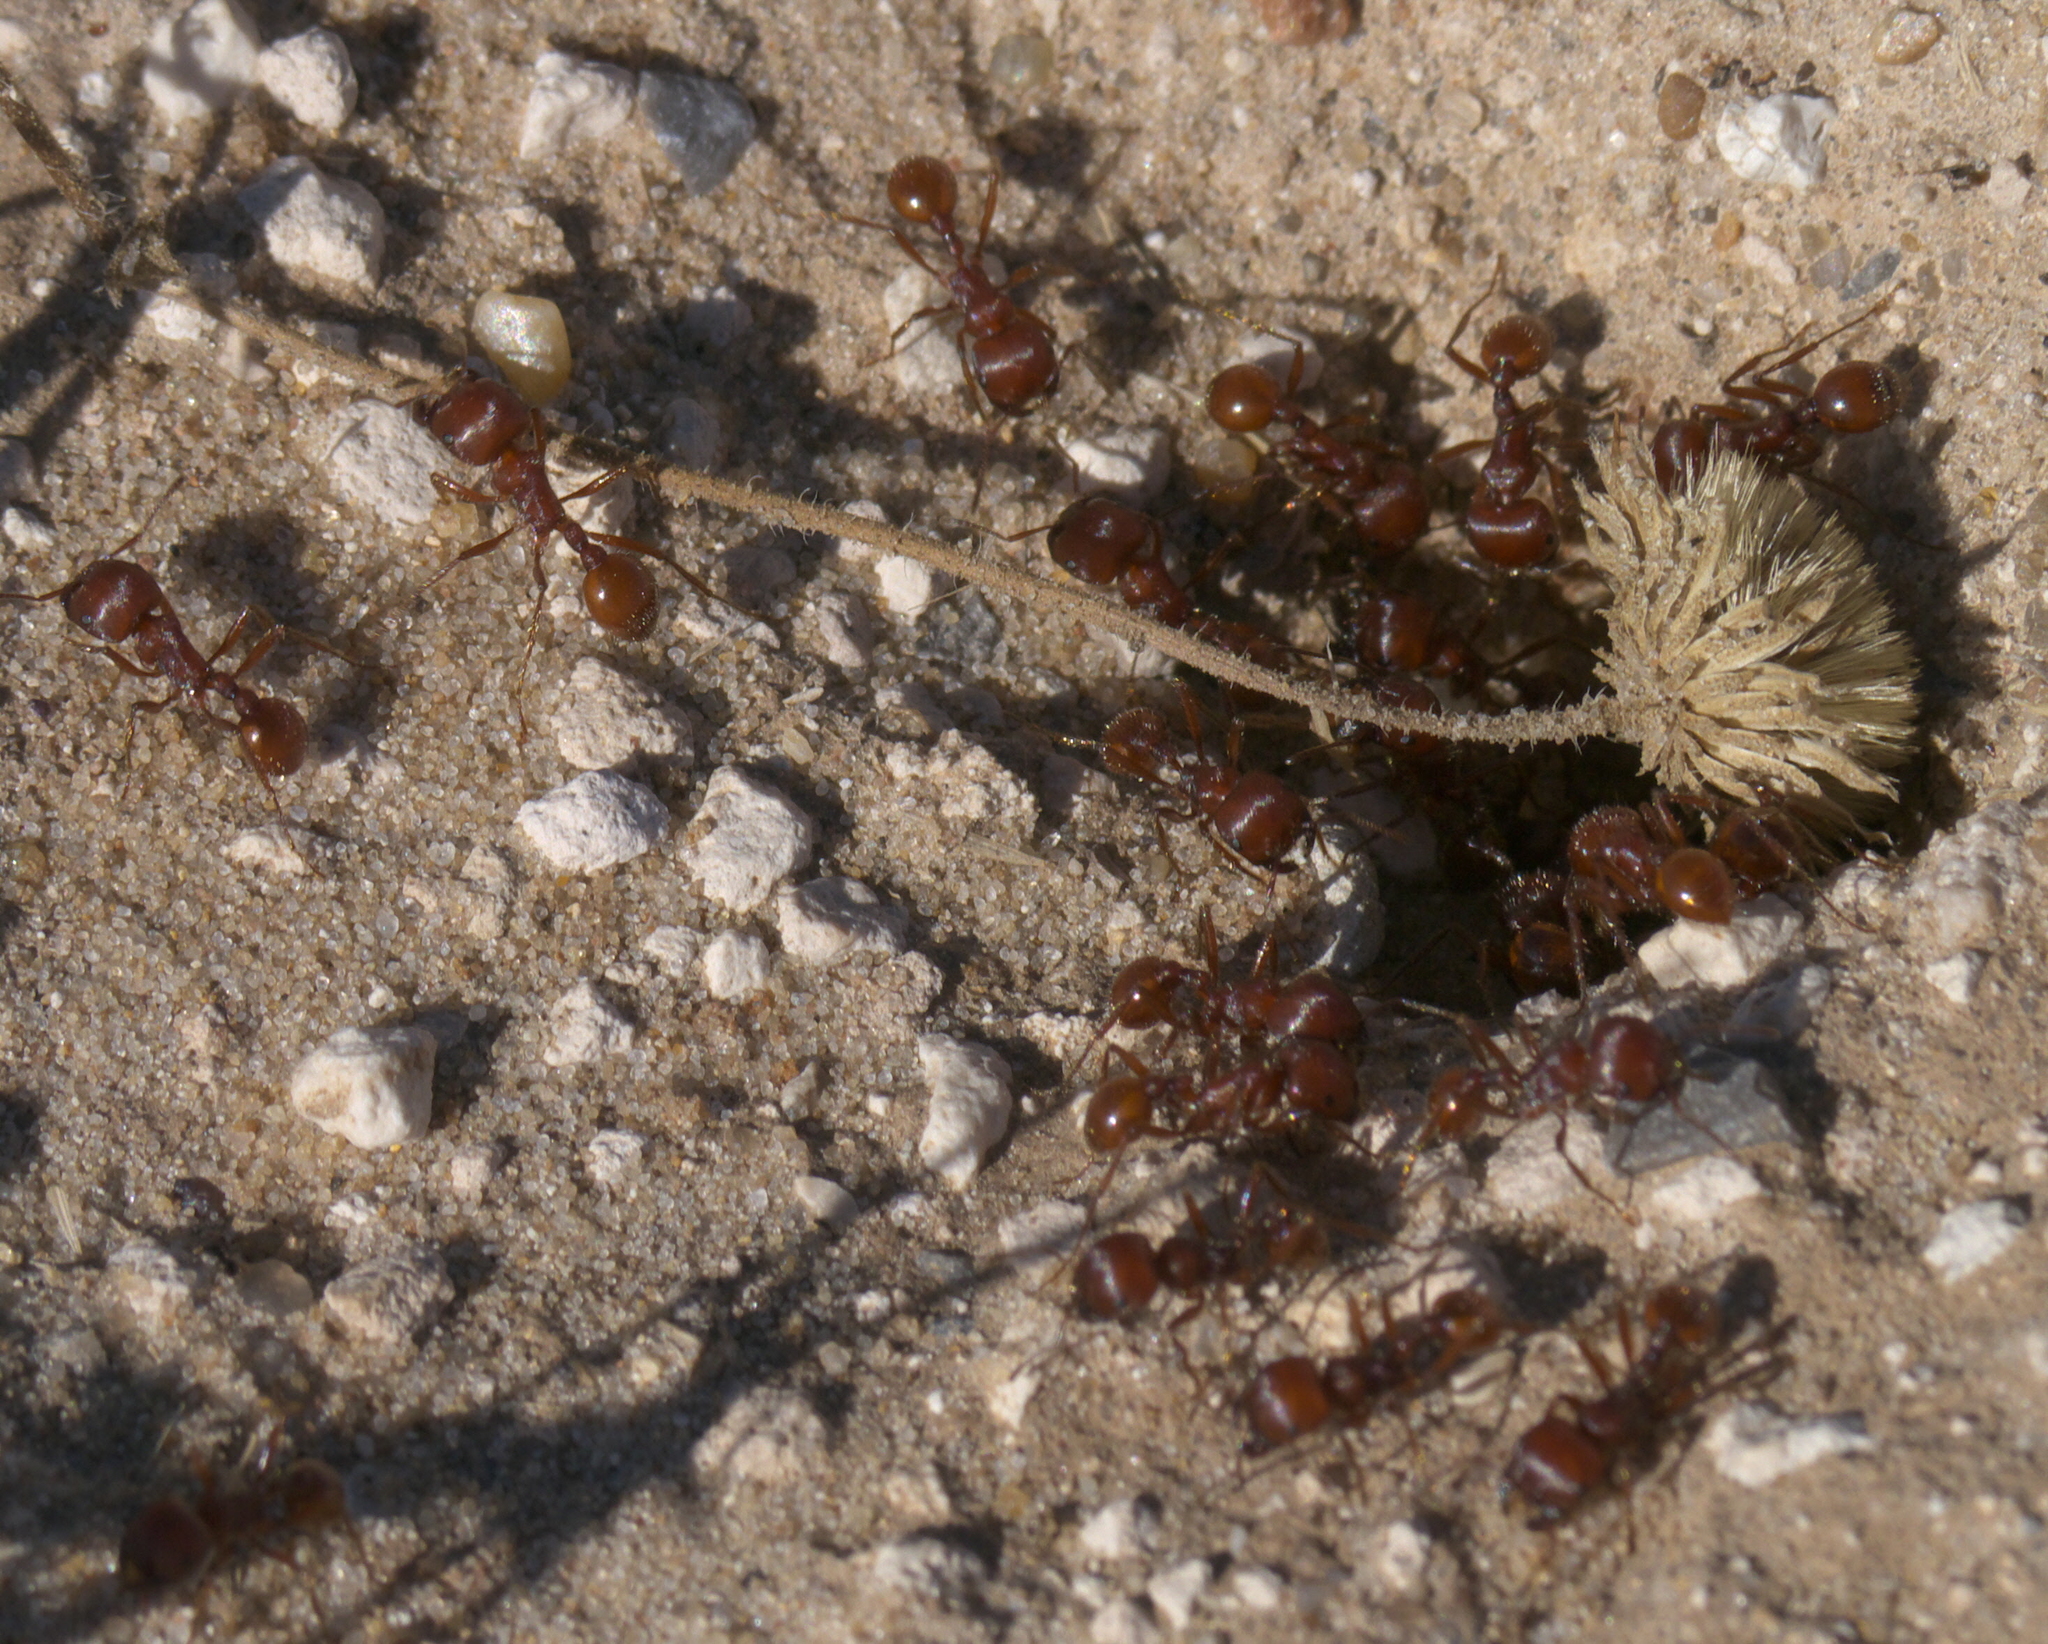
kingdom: Animalia
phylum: Arthropoda
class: Insecta
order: Hymenoptera
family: Formicidae
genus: Pogonomyrmex
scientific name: Pogonomyrmex barbatus
